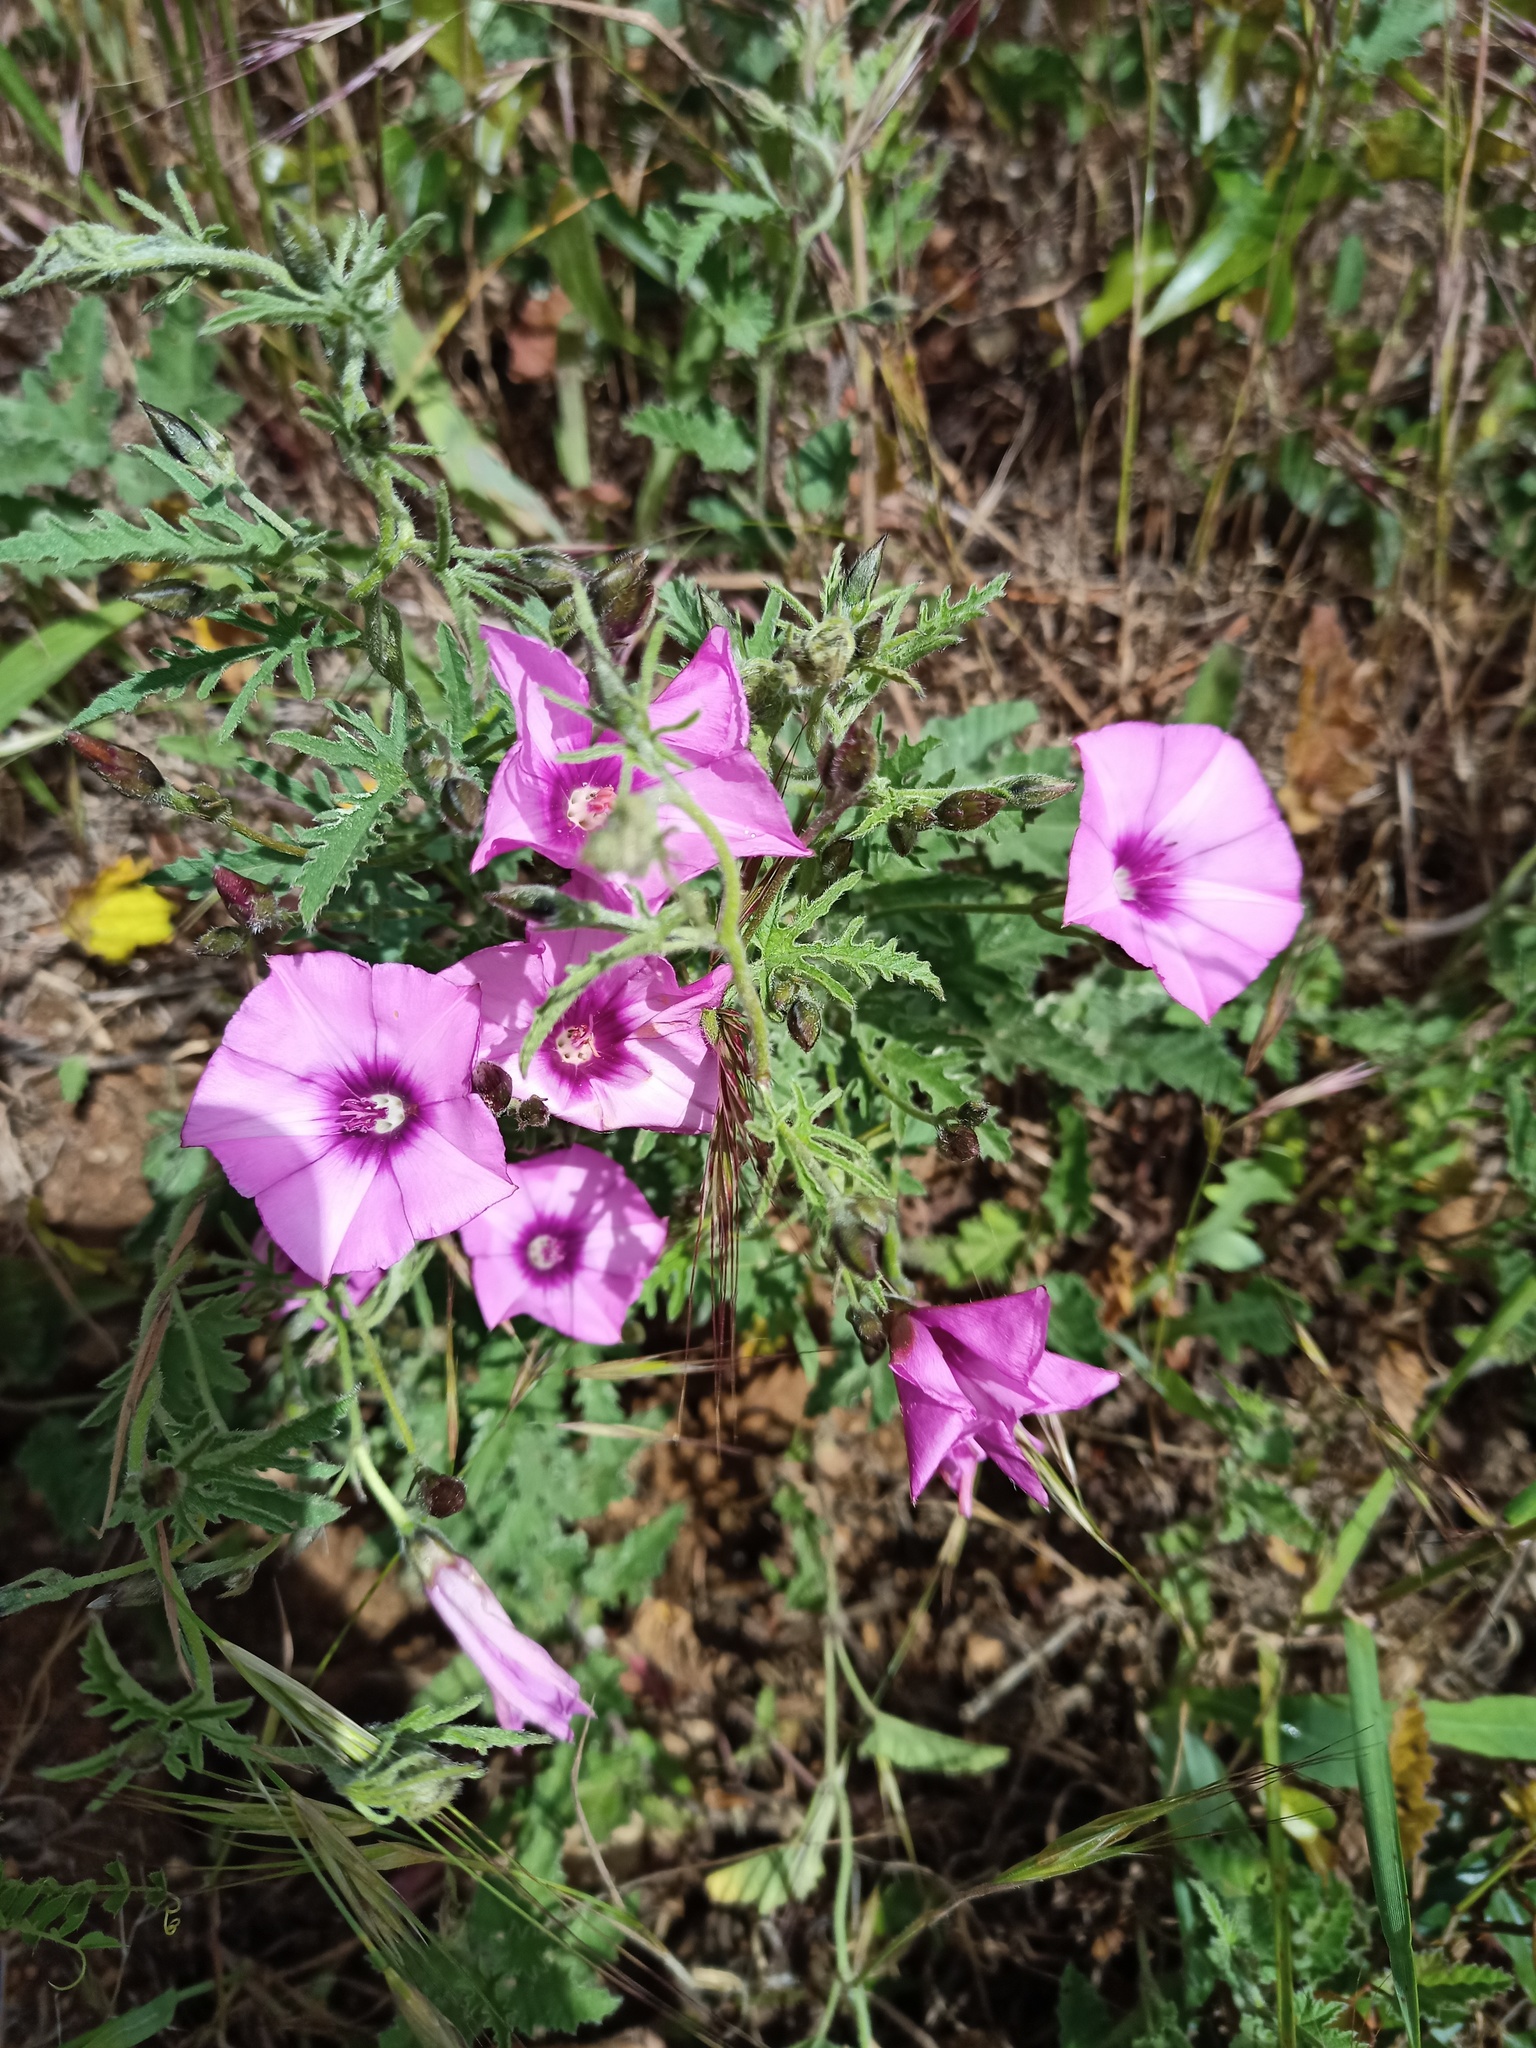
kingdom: Plantae
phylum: Tracheophyta
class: Magnoliopsida
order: Solanales
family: Convolvulaceae
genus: Convolvulus
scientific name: Convolvulus althaeoides
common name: Mallow bindweed
